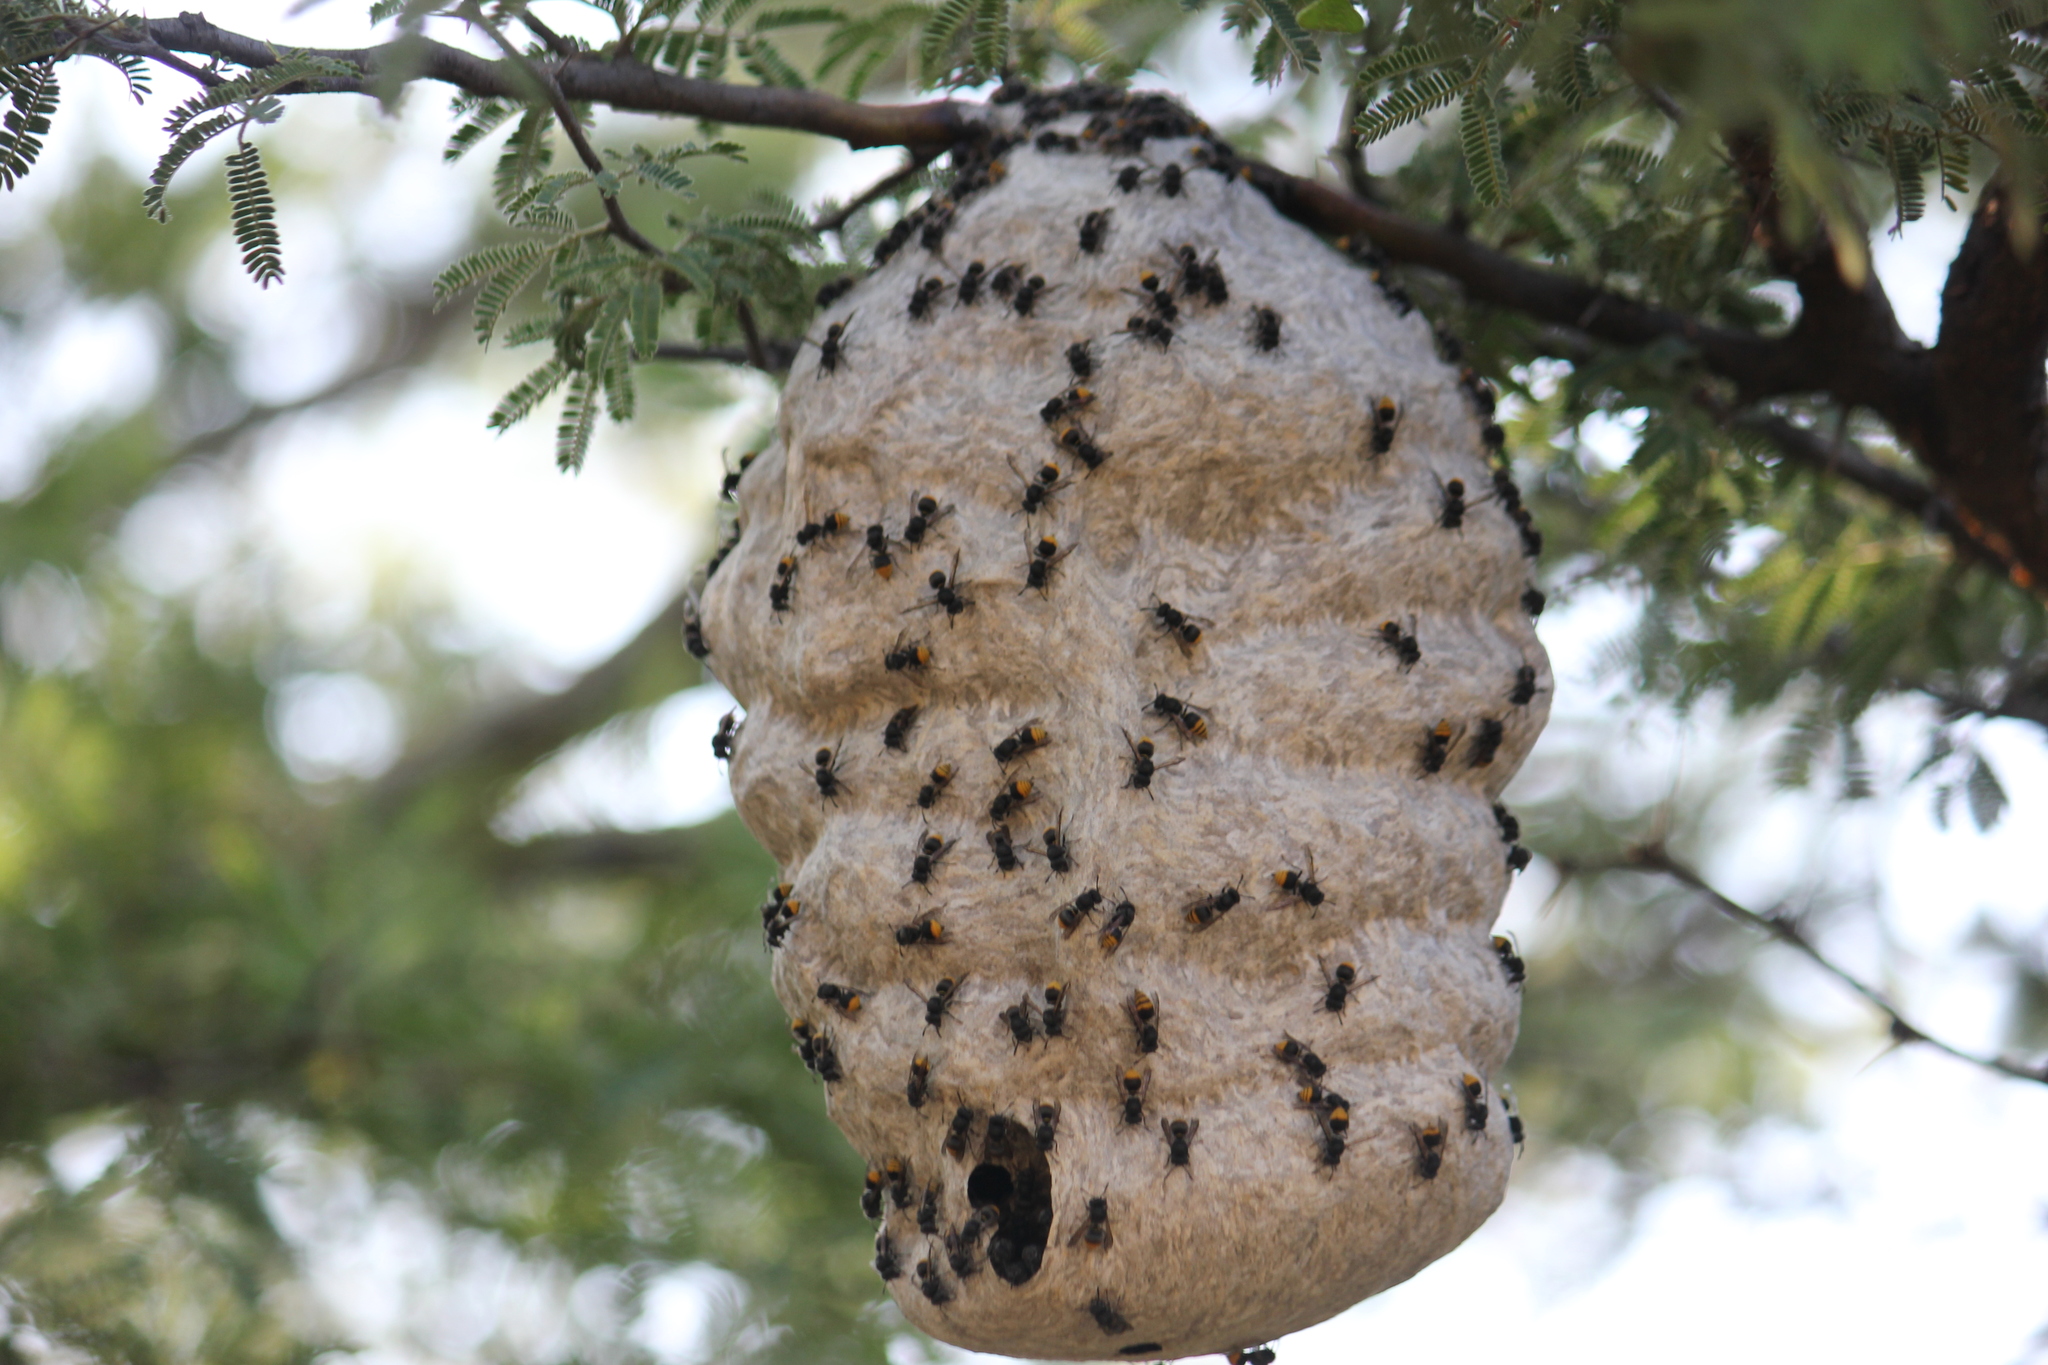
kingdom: Animalia
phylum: Arthropoda
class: Insecta
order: Hymenoptera
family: Vespidae
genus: Brachygastra
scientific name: Brachygastra azteca
